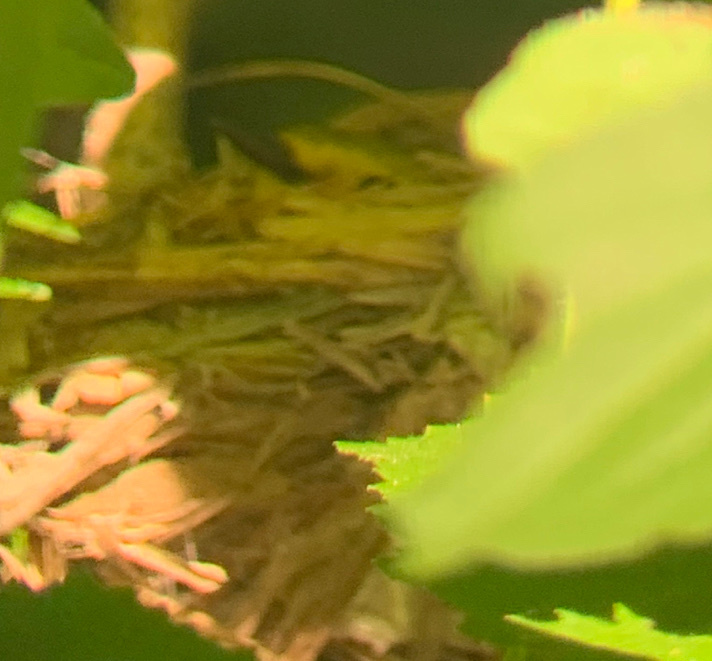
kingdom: Animalia
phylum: Chordata
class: Aves
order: Passeriformes
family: Parulidae
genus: Setophaga
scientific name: Setophaga citrina
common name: Hooded warbler
